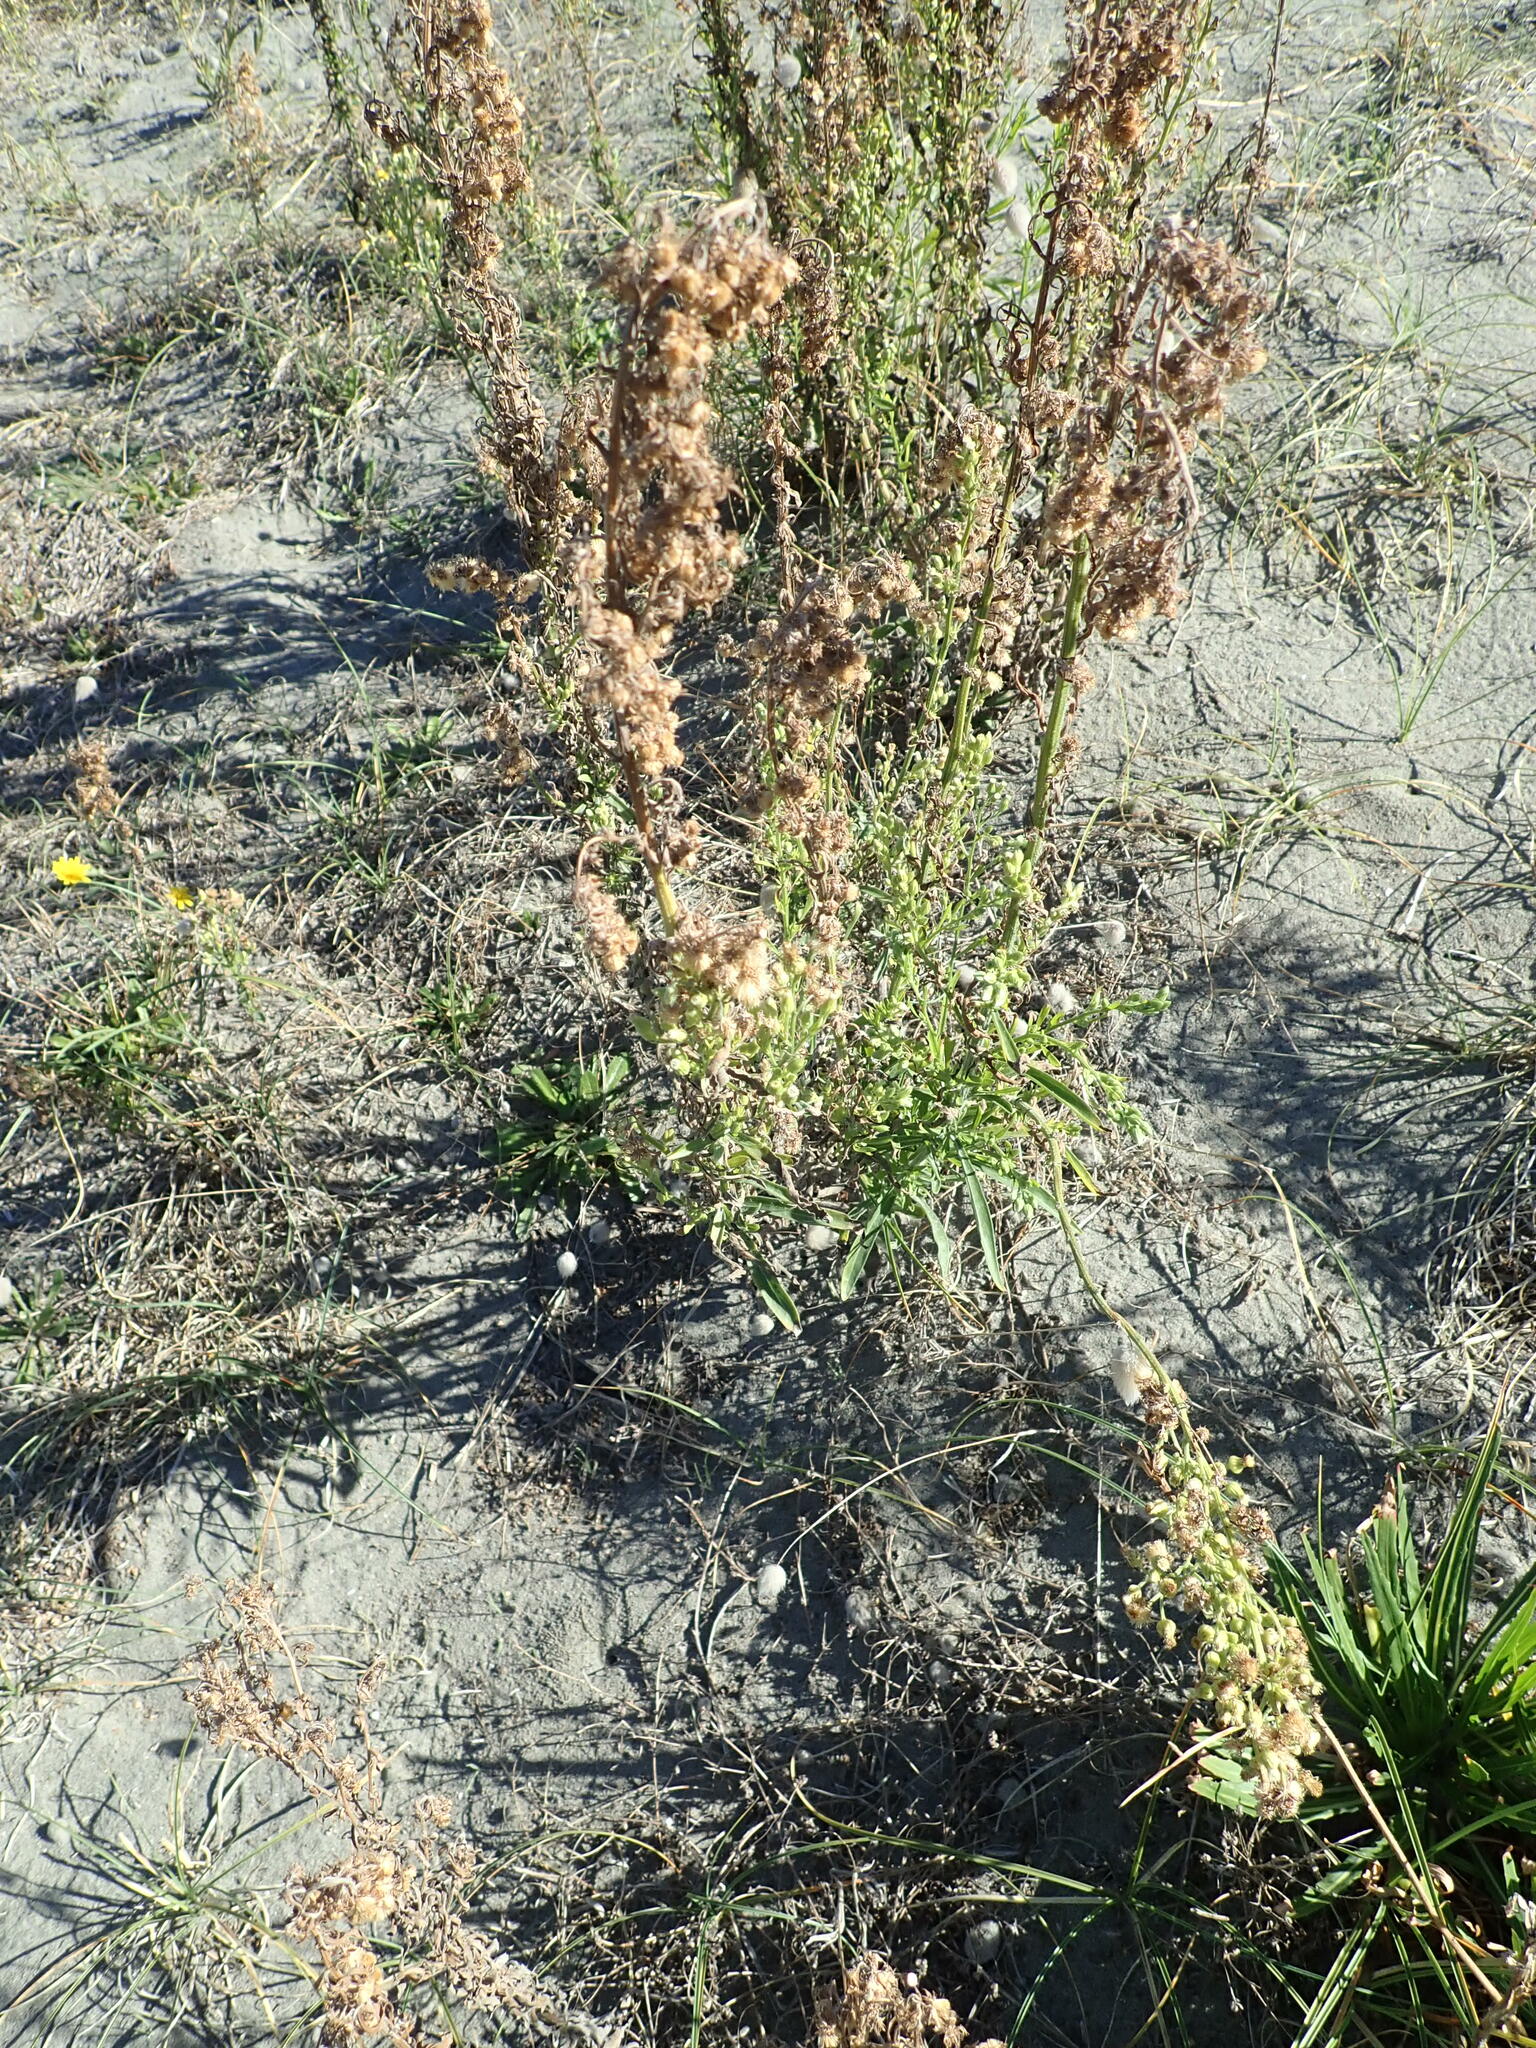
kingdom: Plantae
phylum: Tracheophyta
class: Magnoliopsida
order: Asterales
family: Asteraceae
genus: Erigeron
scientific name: Erigeron sumatrensis
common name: Daisy
